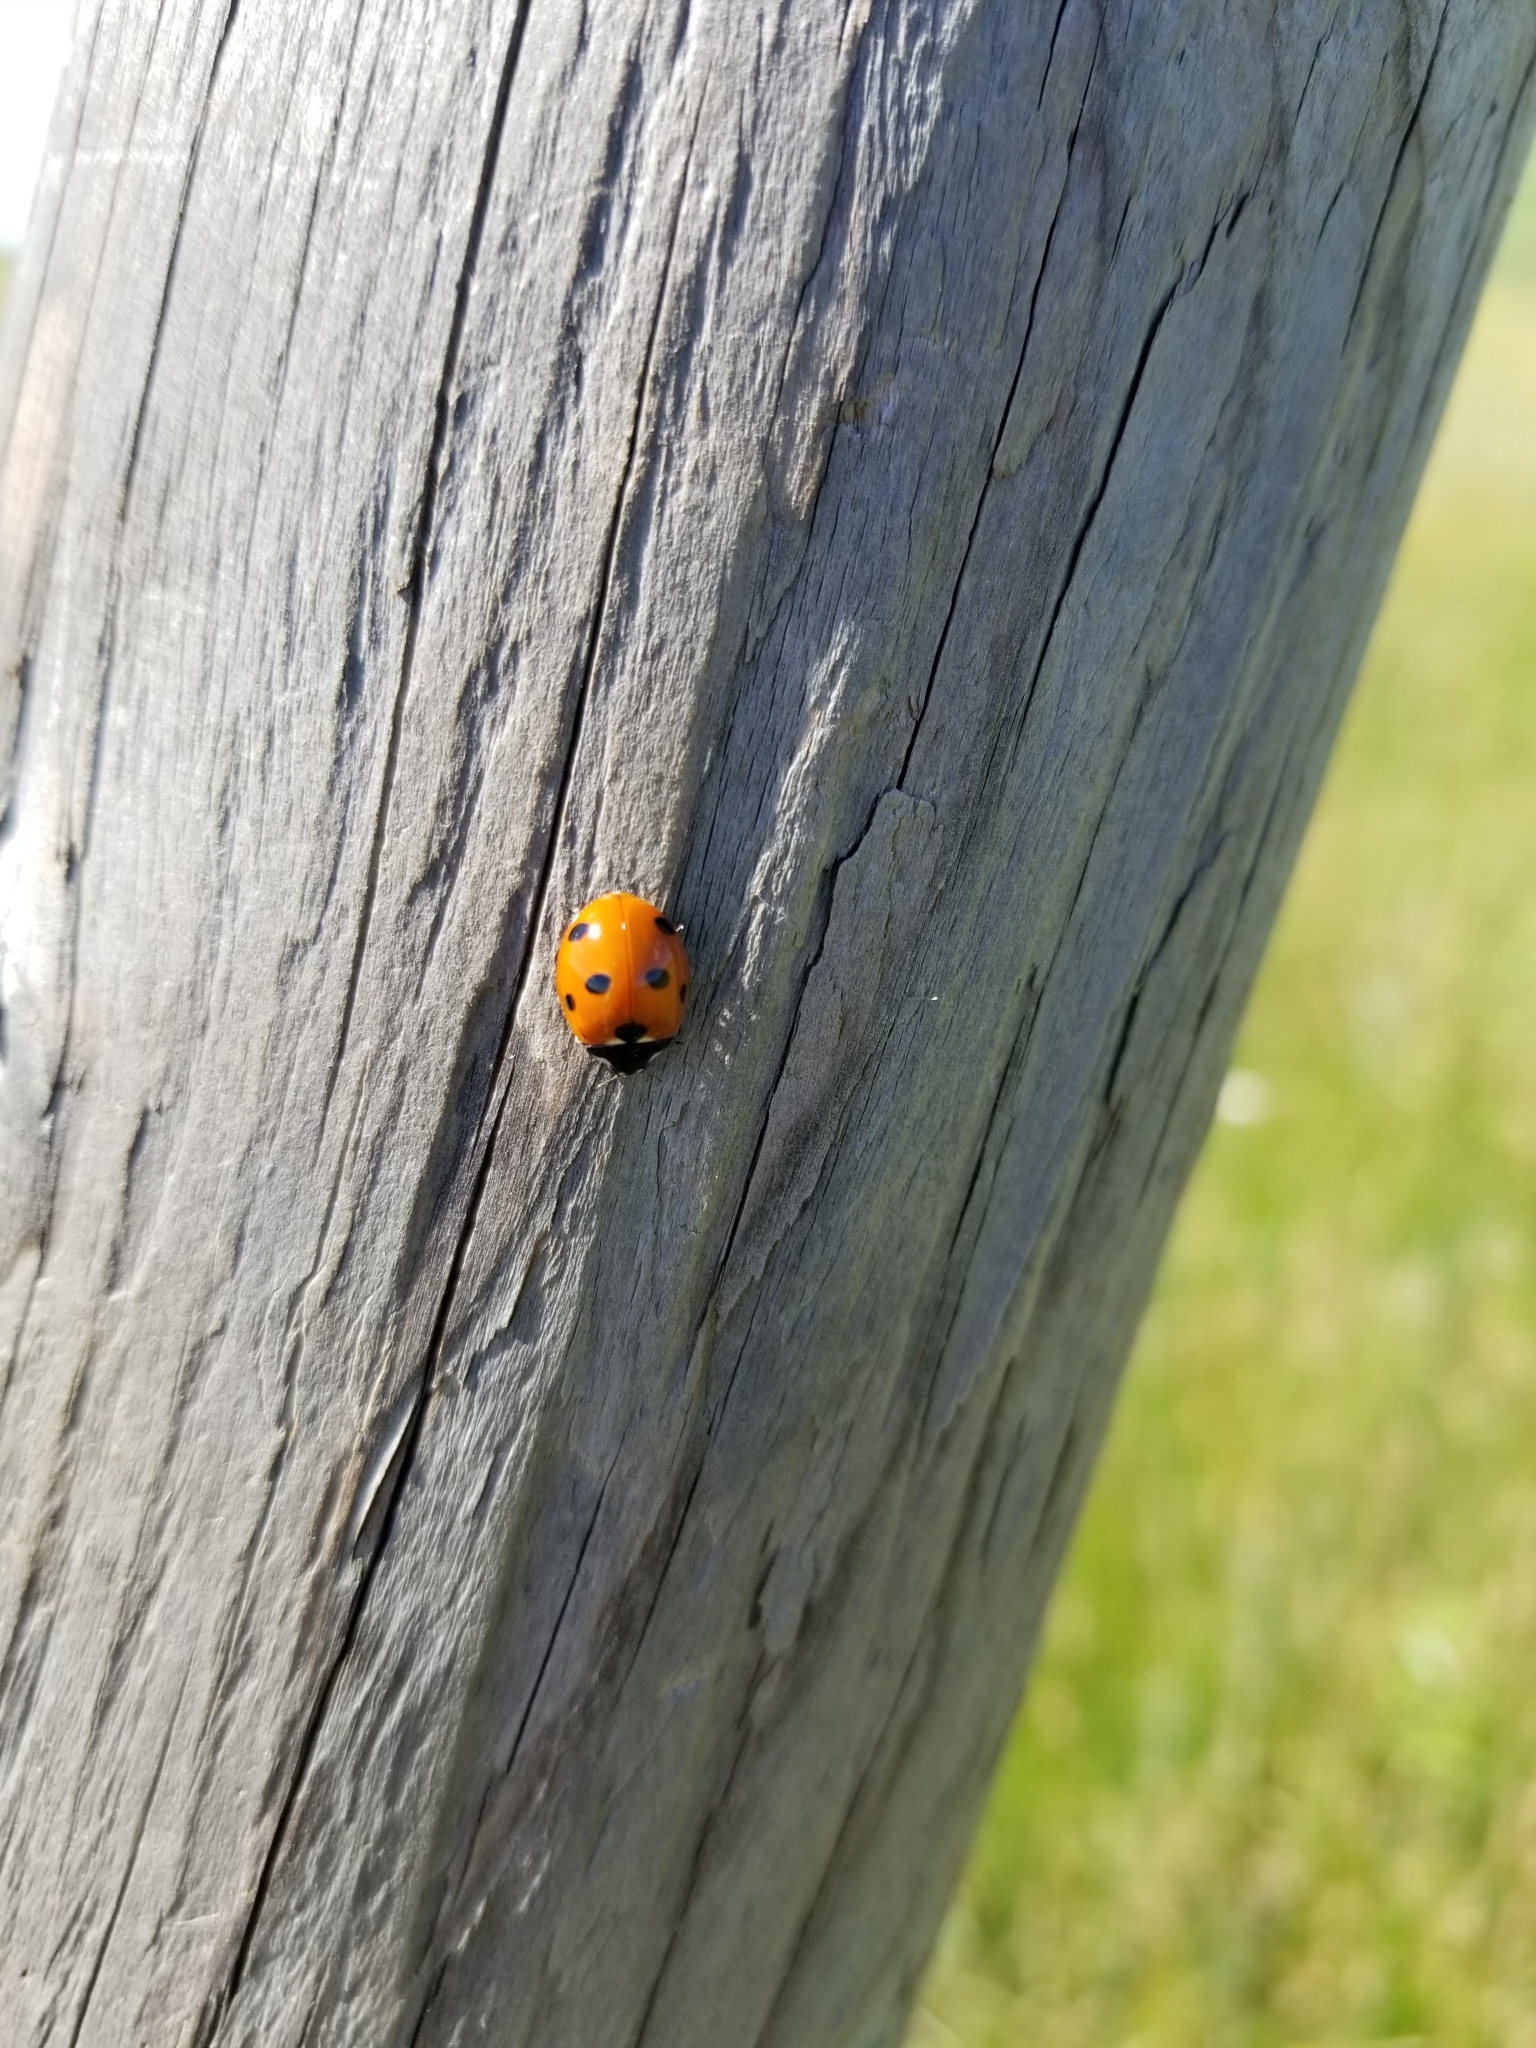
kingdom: Animalia
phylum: Arthropoda
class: Insecta
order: Coleoptera
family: Coccinellidae
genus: Coccinella
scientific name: Coccinella septempunctata
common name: Sevenspotted lady beetle
